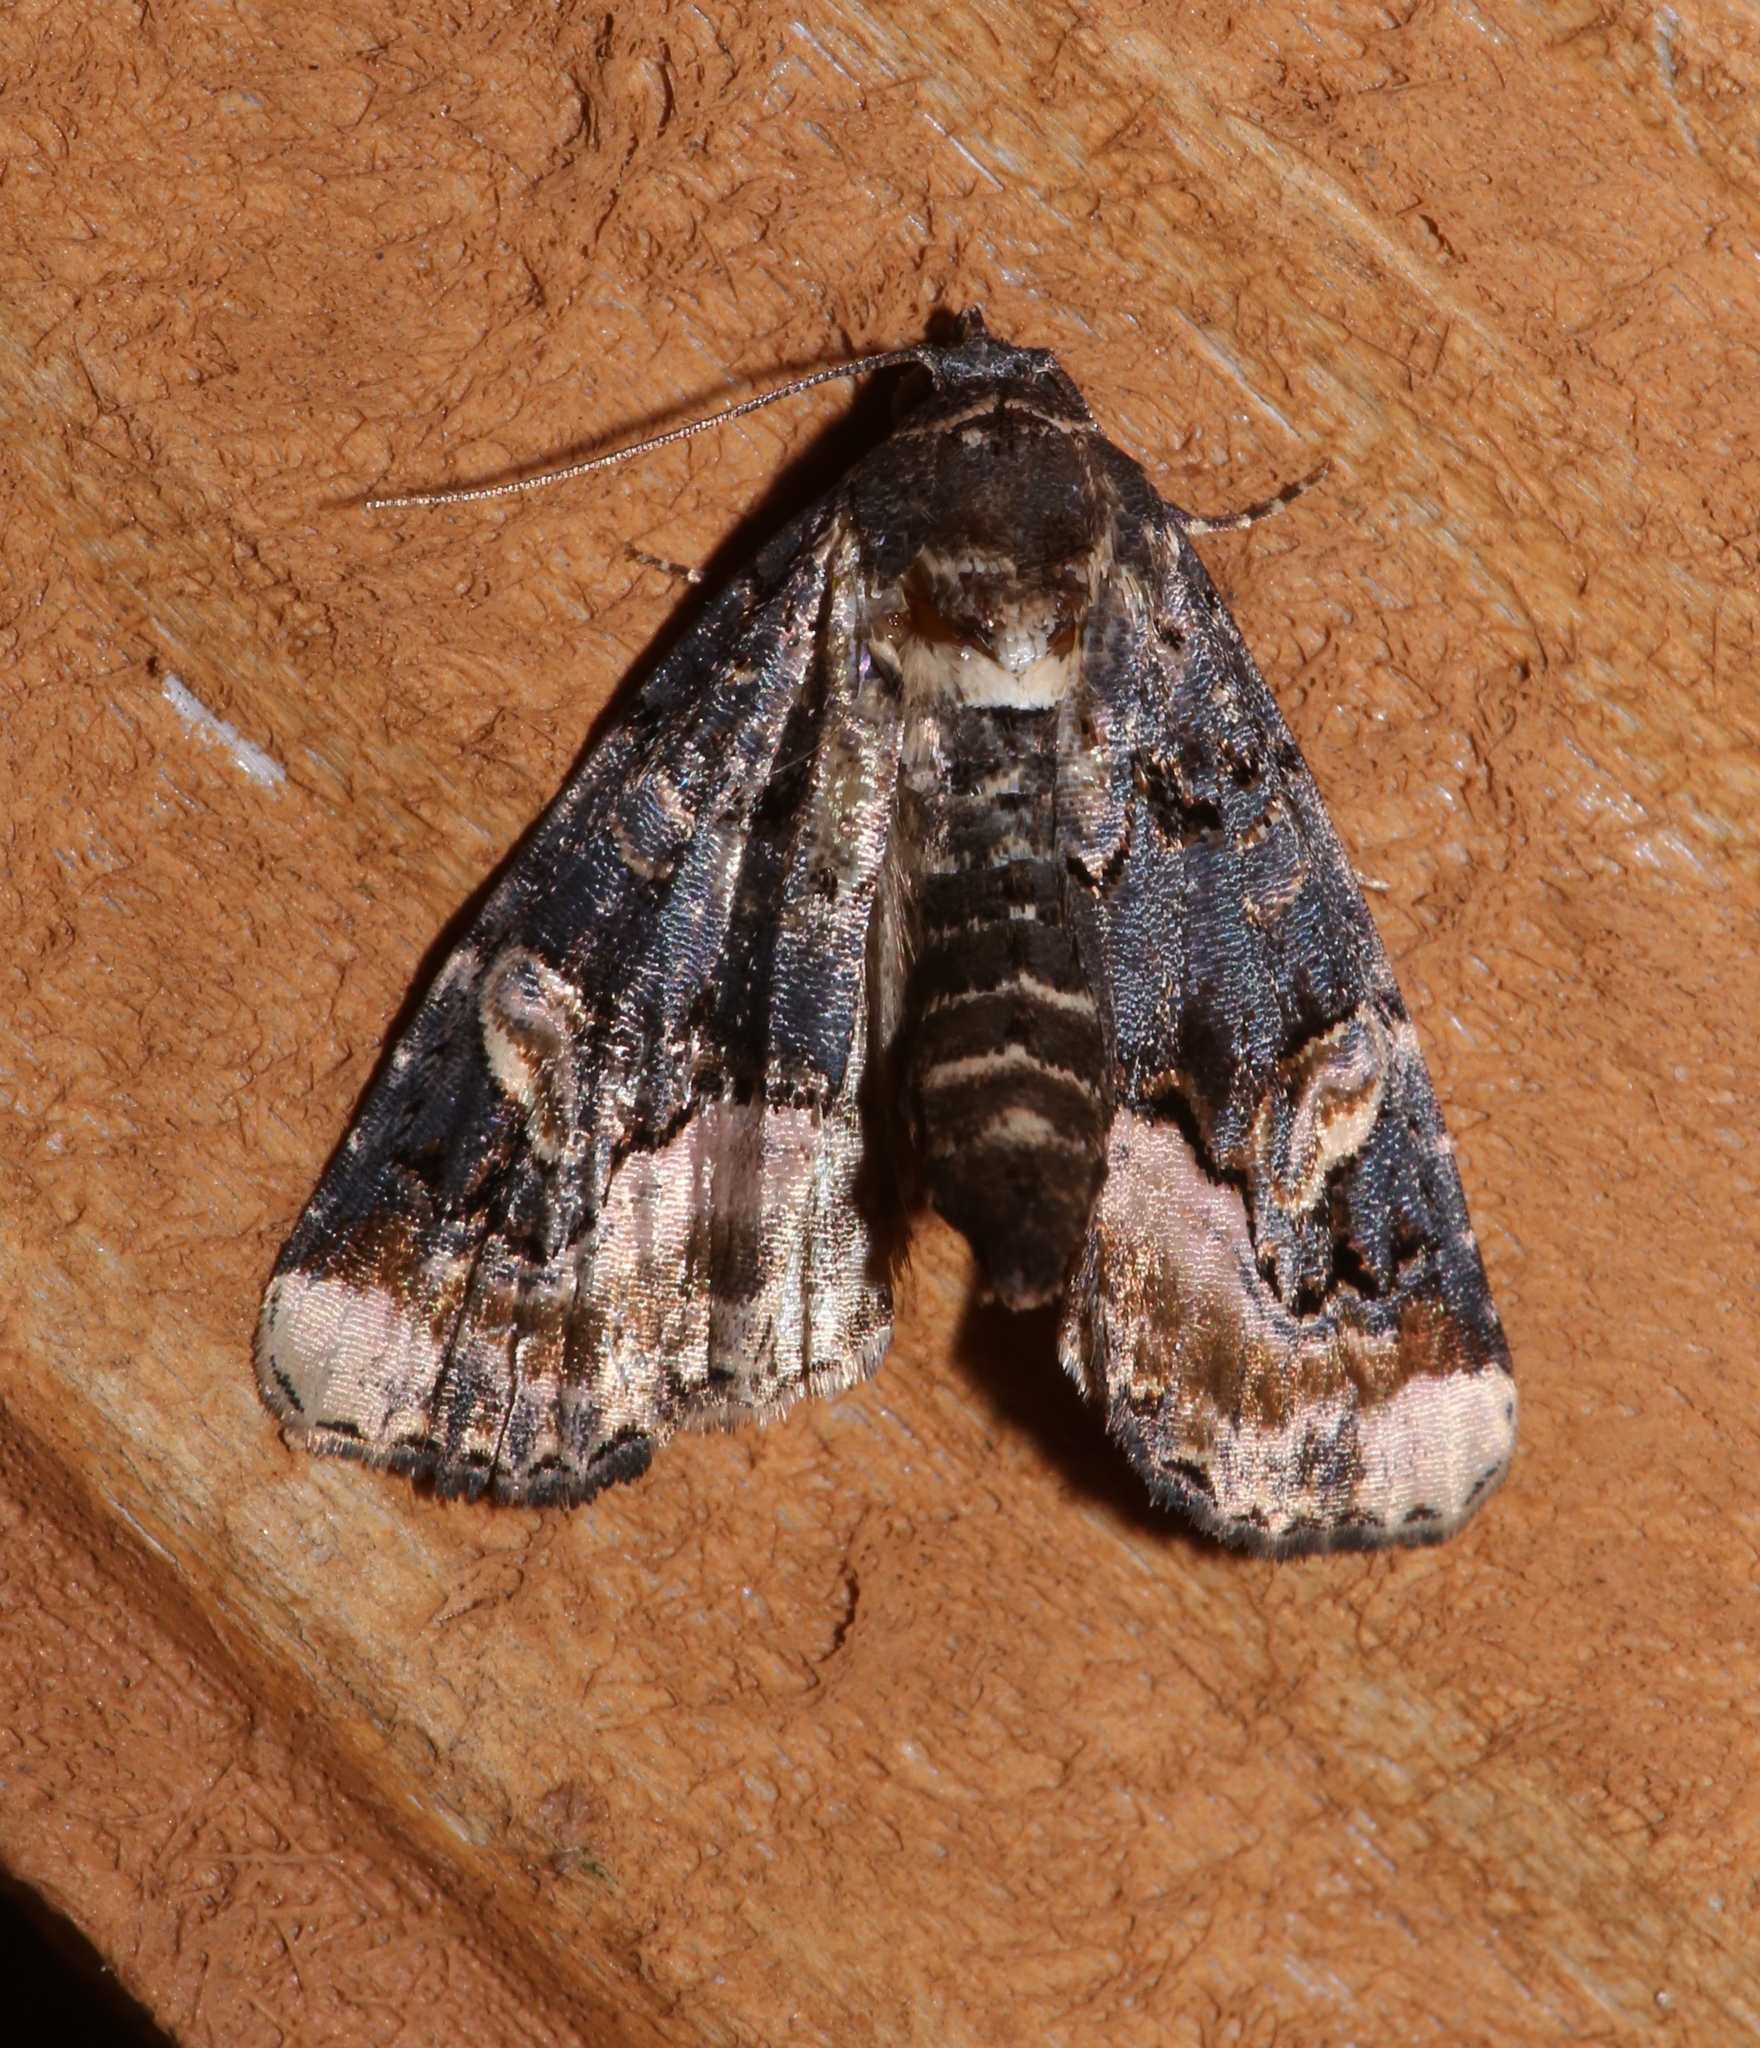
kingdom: Animalia
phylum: Arthropoda
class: Insecta
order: Lepidoptera
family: Noctuidae
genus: Homophoberia
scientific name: Homophoberia apicosa
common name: Black wedge-spot
